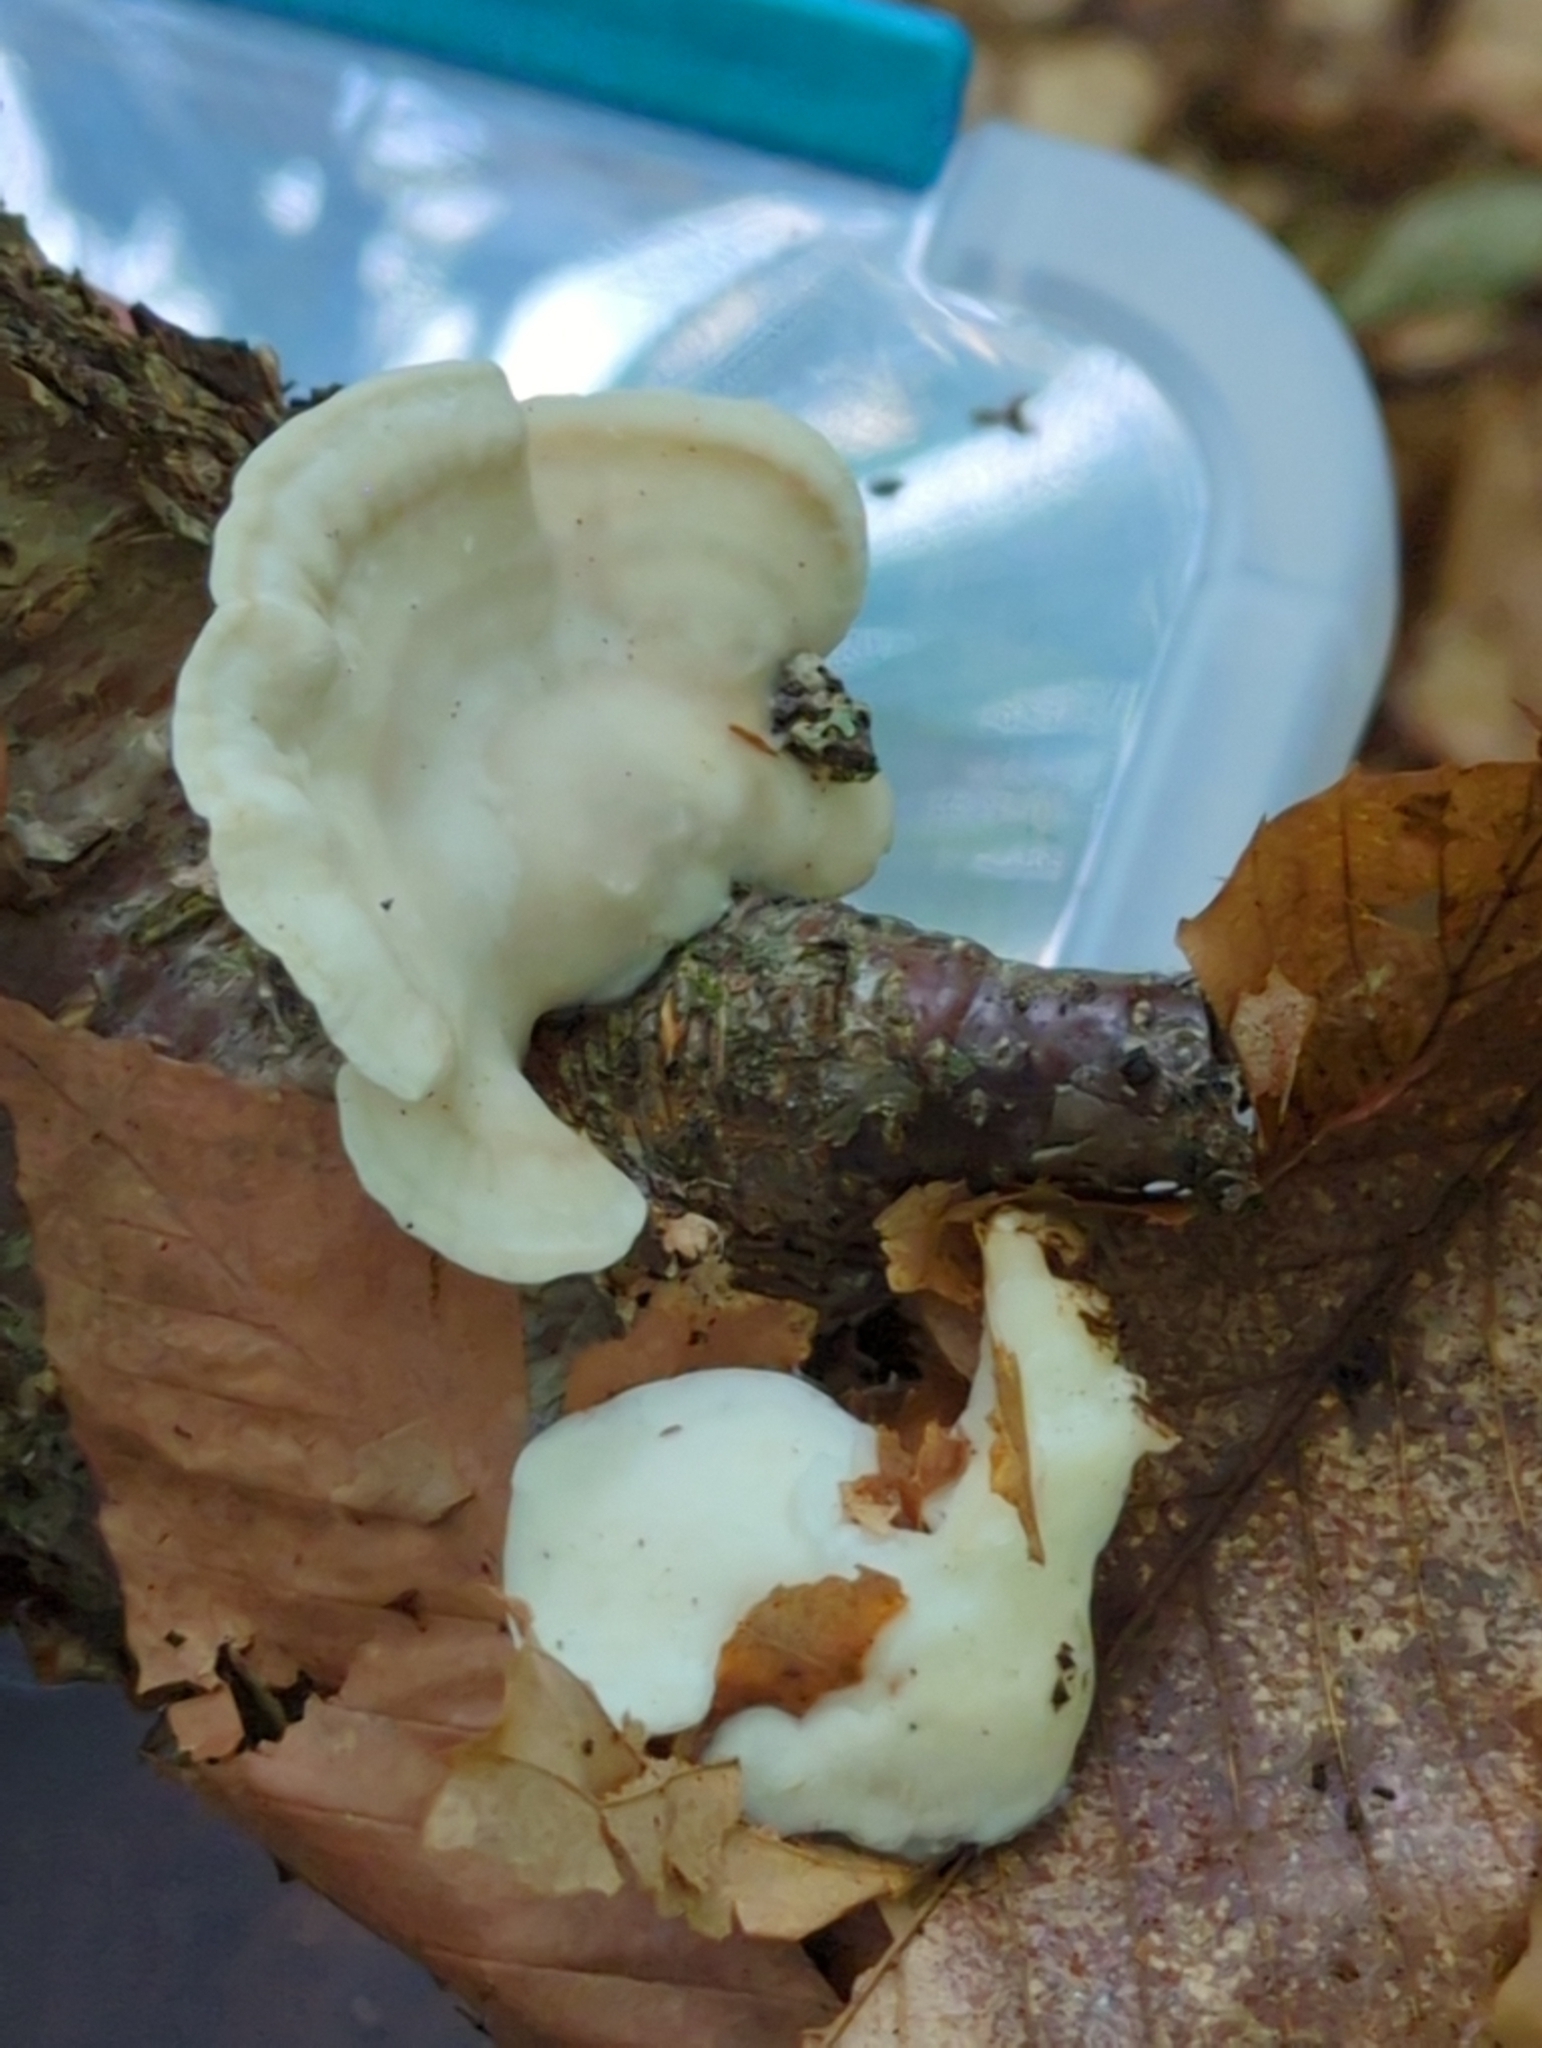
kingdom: Fungi
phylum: Basidiomycota
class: Agaricomycetes
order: Polyporales
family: Incrustoporiaceae
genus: Tyromyces
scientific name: Tyromyces galactinus
